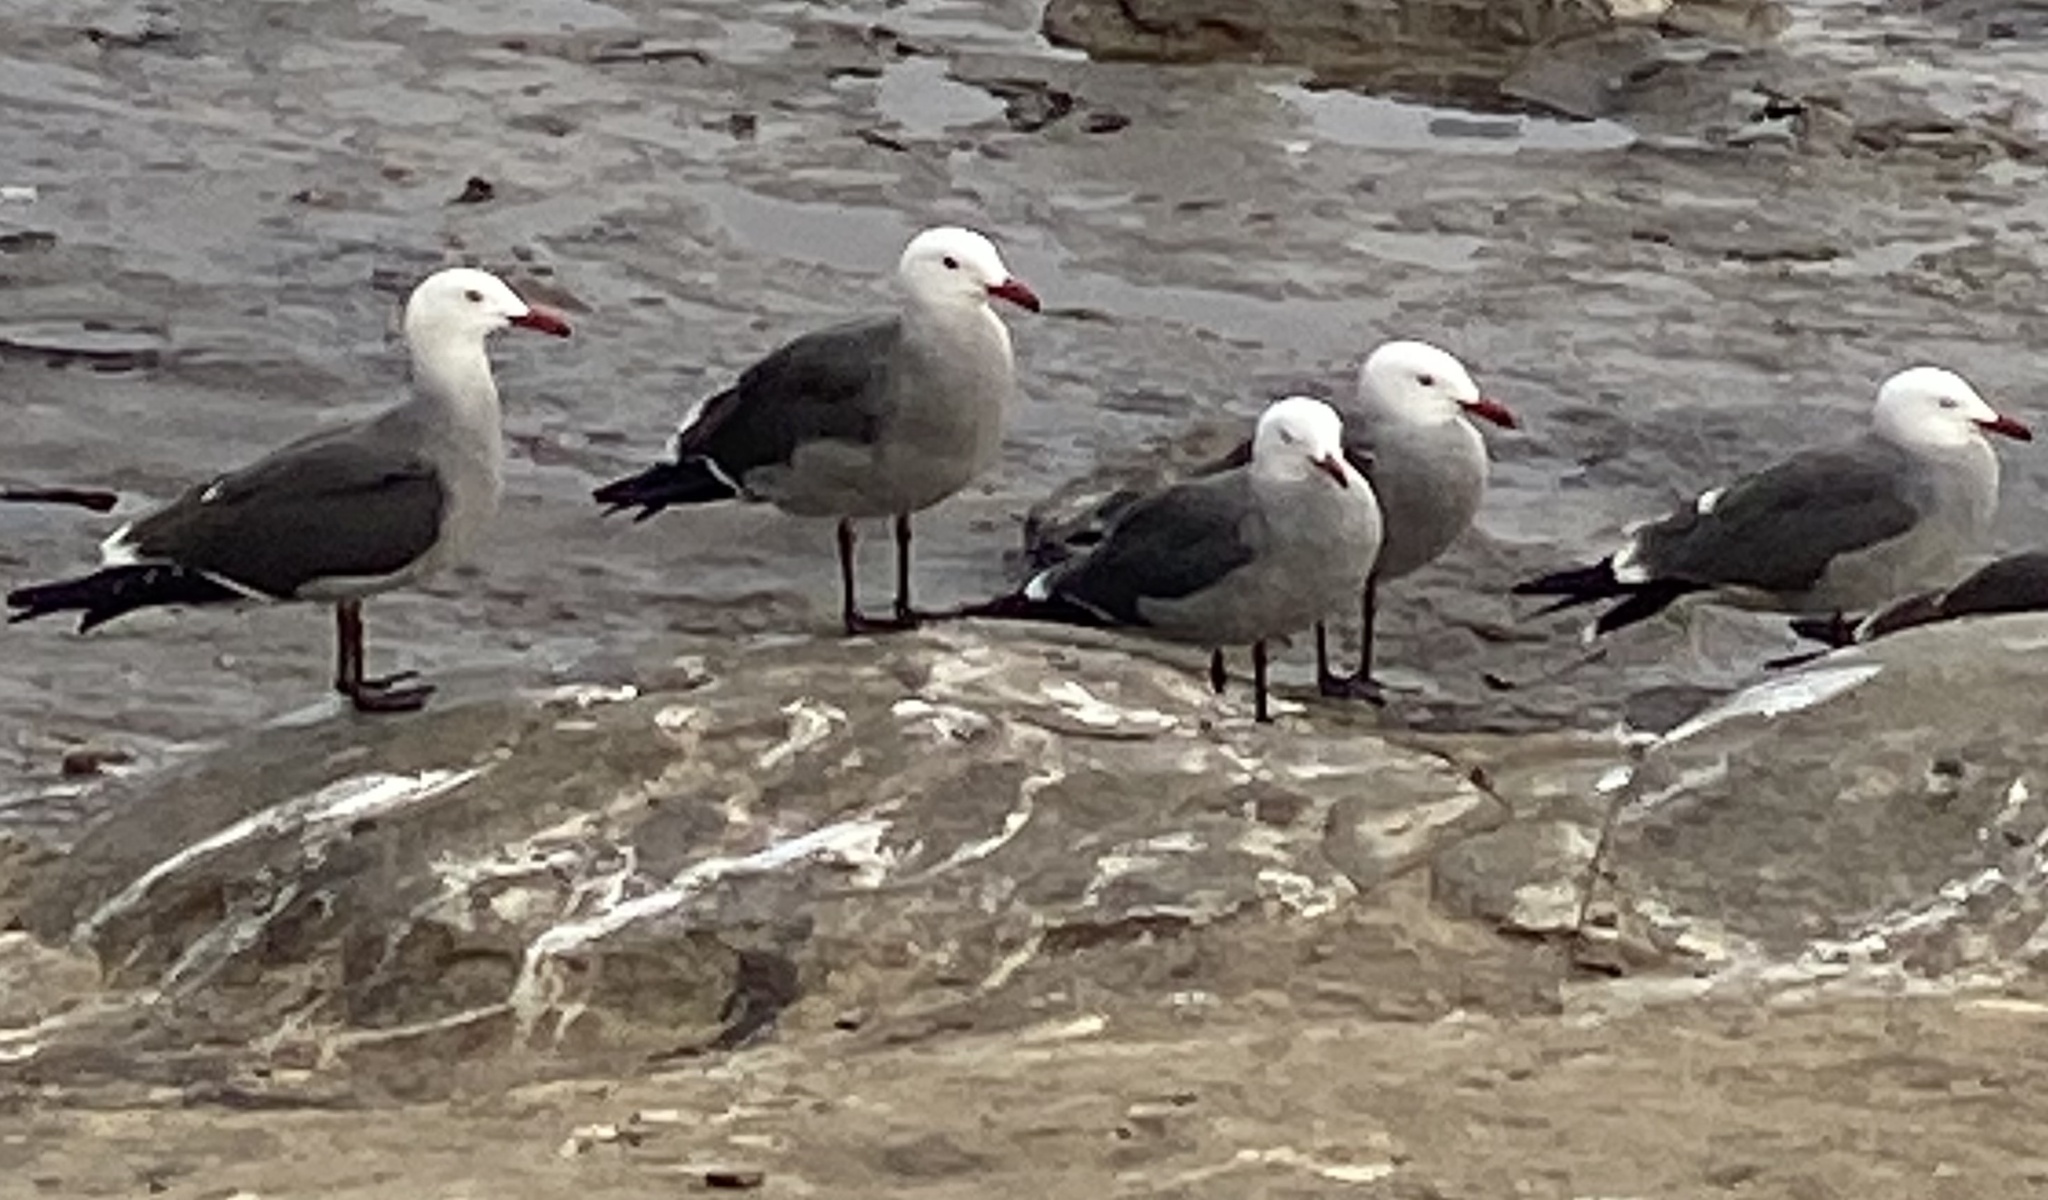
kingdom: Animalia
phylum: Chordata
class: Aves
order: Charadriiformes
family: Laridae
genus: Larus
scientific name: Larus heermanni
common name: Heermann's gull
